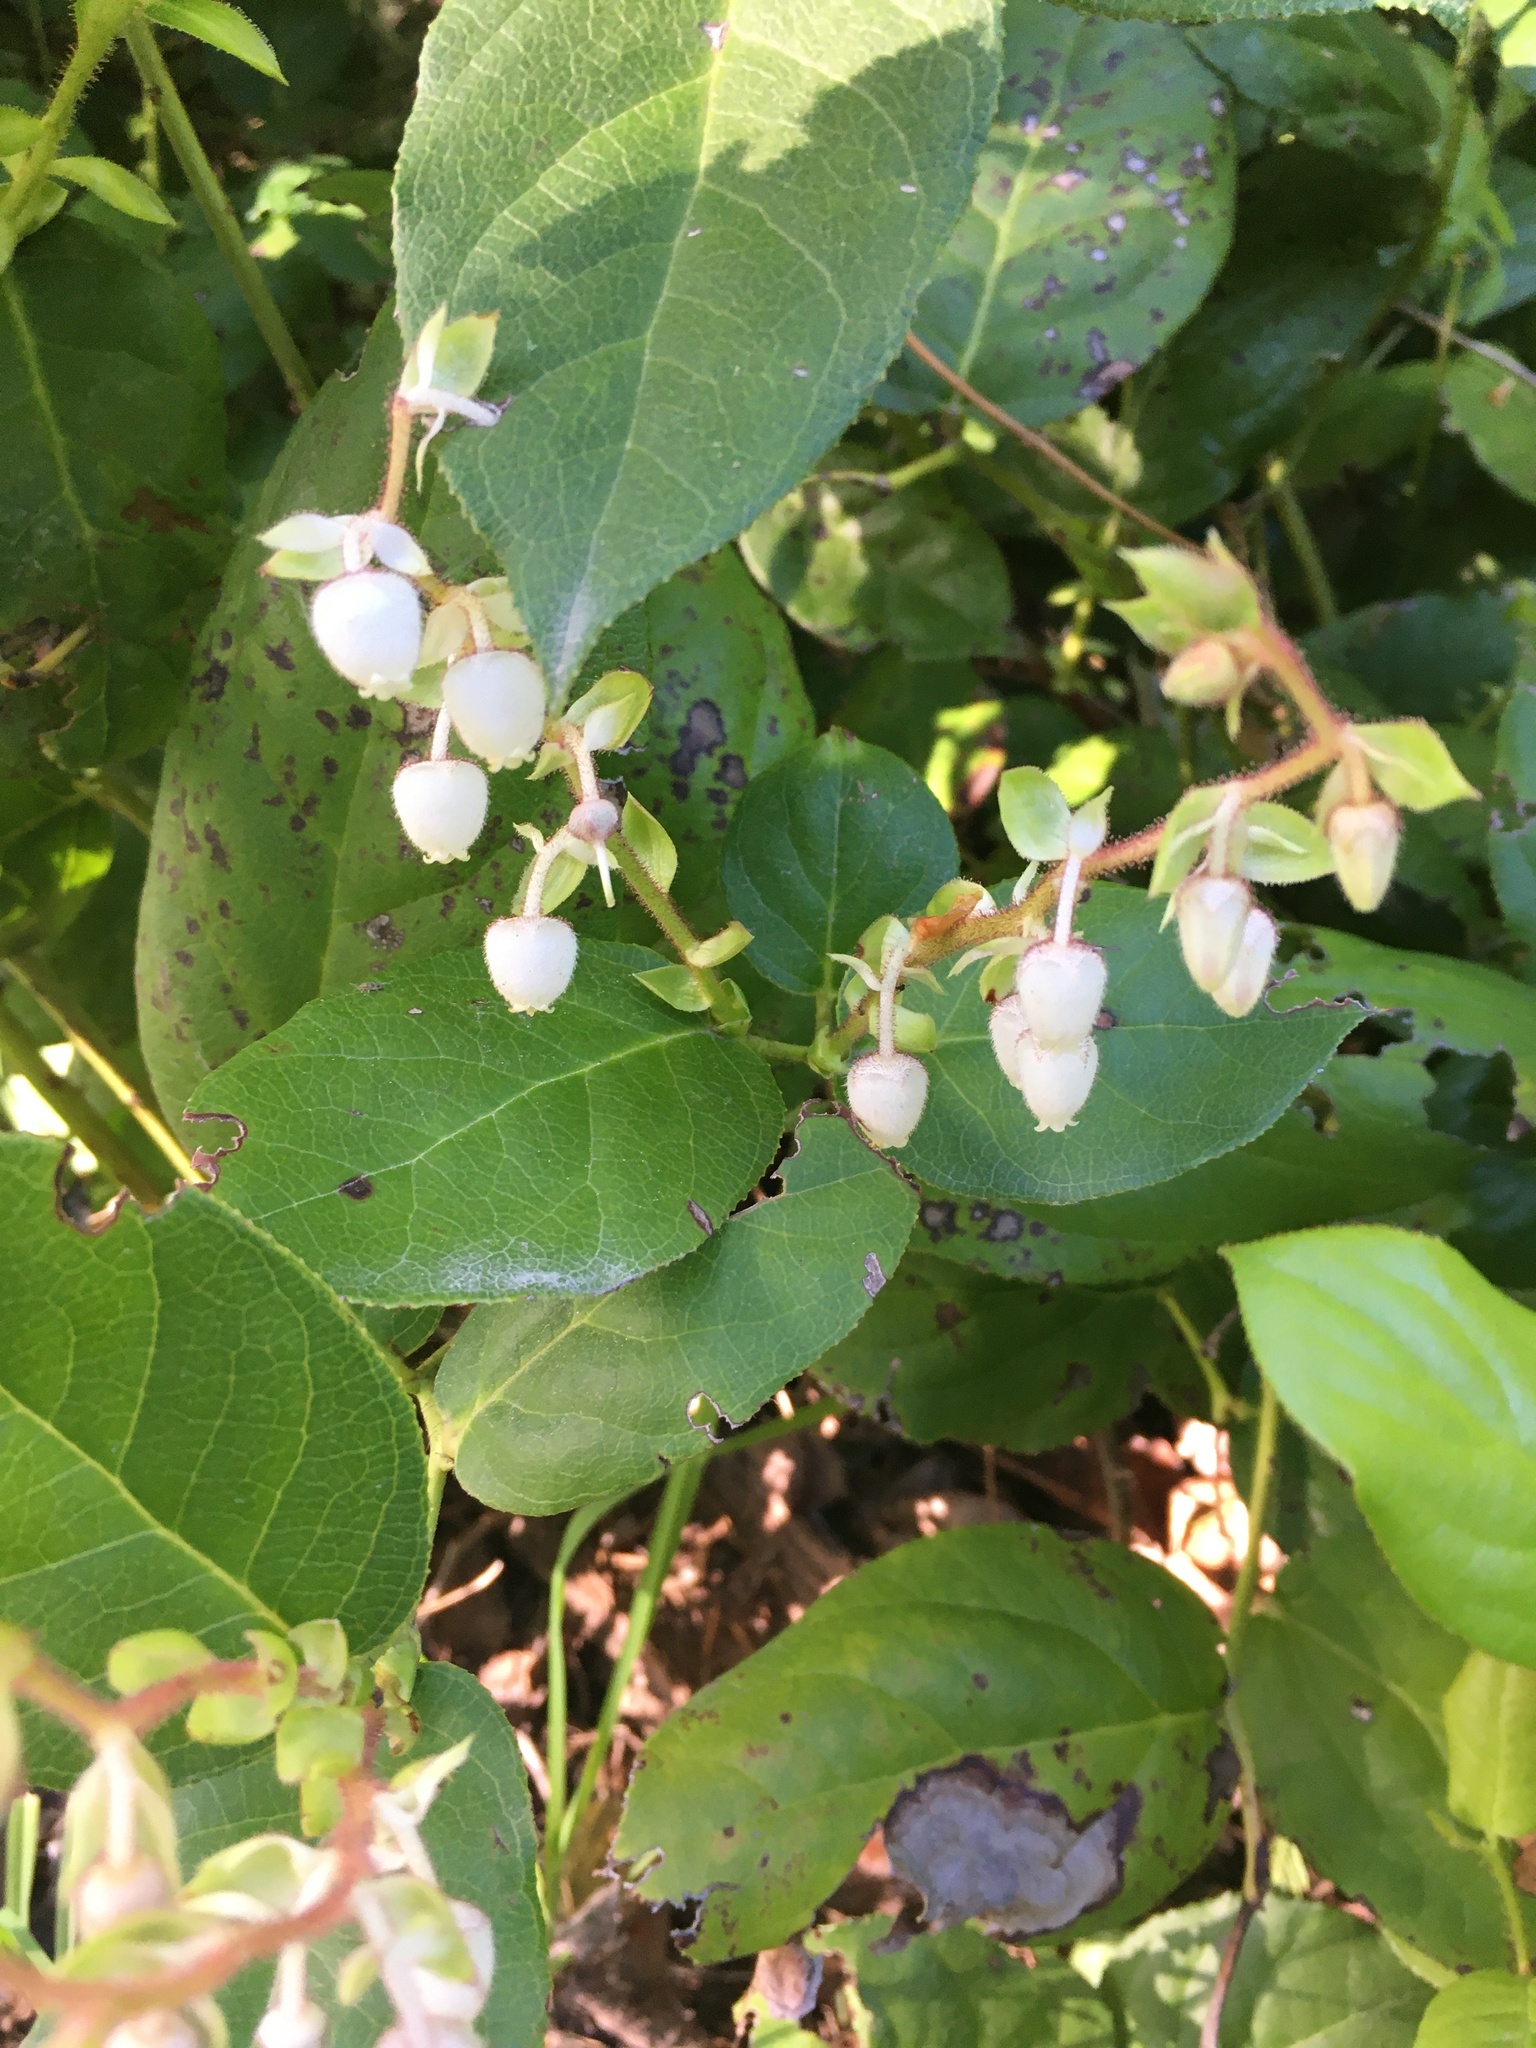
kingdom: Plantae
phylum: Tracheophyta
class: Magnoliopsida
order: Ericales
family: Ericaceae
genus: Gaultheria
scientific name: Gaultheria shallon
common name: Shallon
